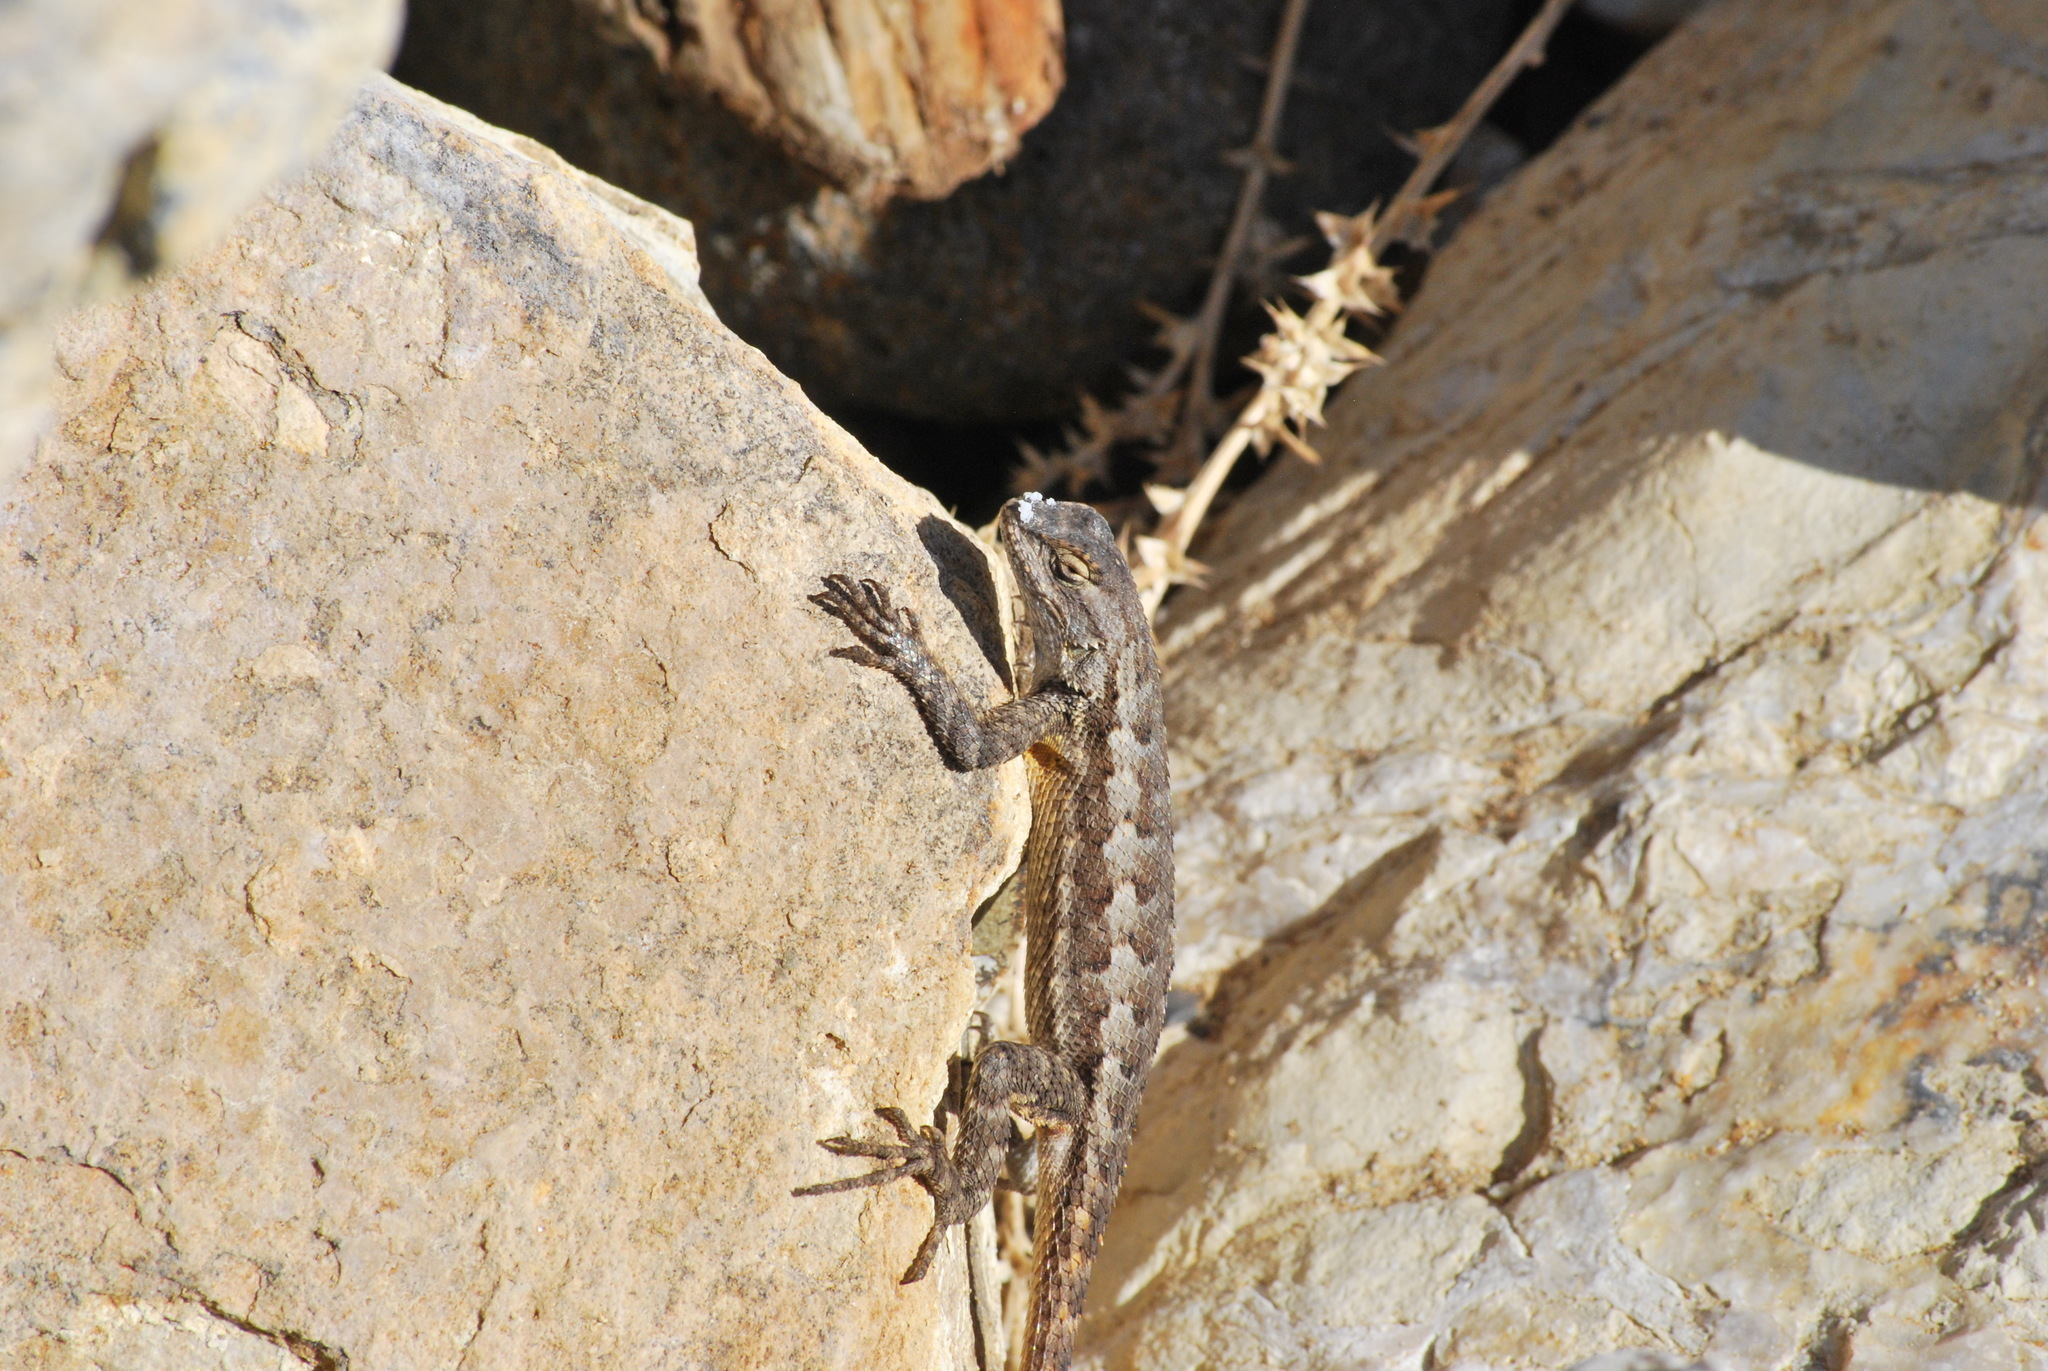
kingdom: Animalia
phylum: Chordata
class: Squamata
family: Phrynosomatidae
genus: Sceloporus
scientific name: Sceloporus occidentalis
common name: Western fence lizard
